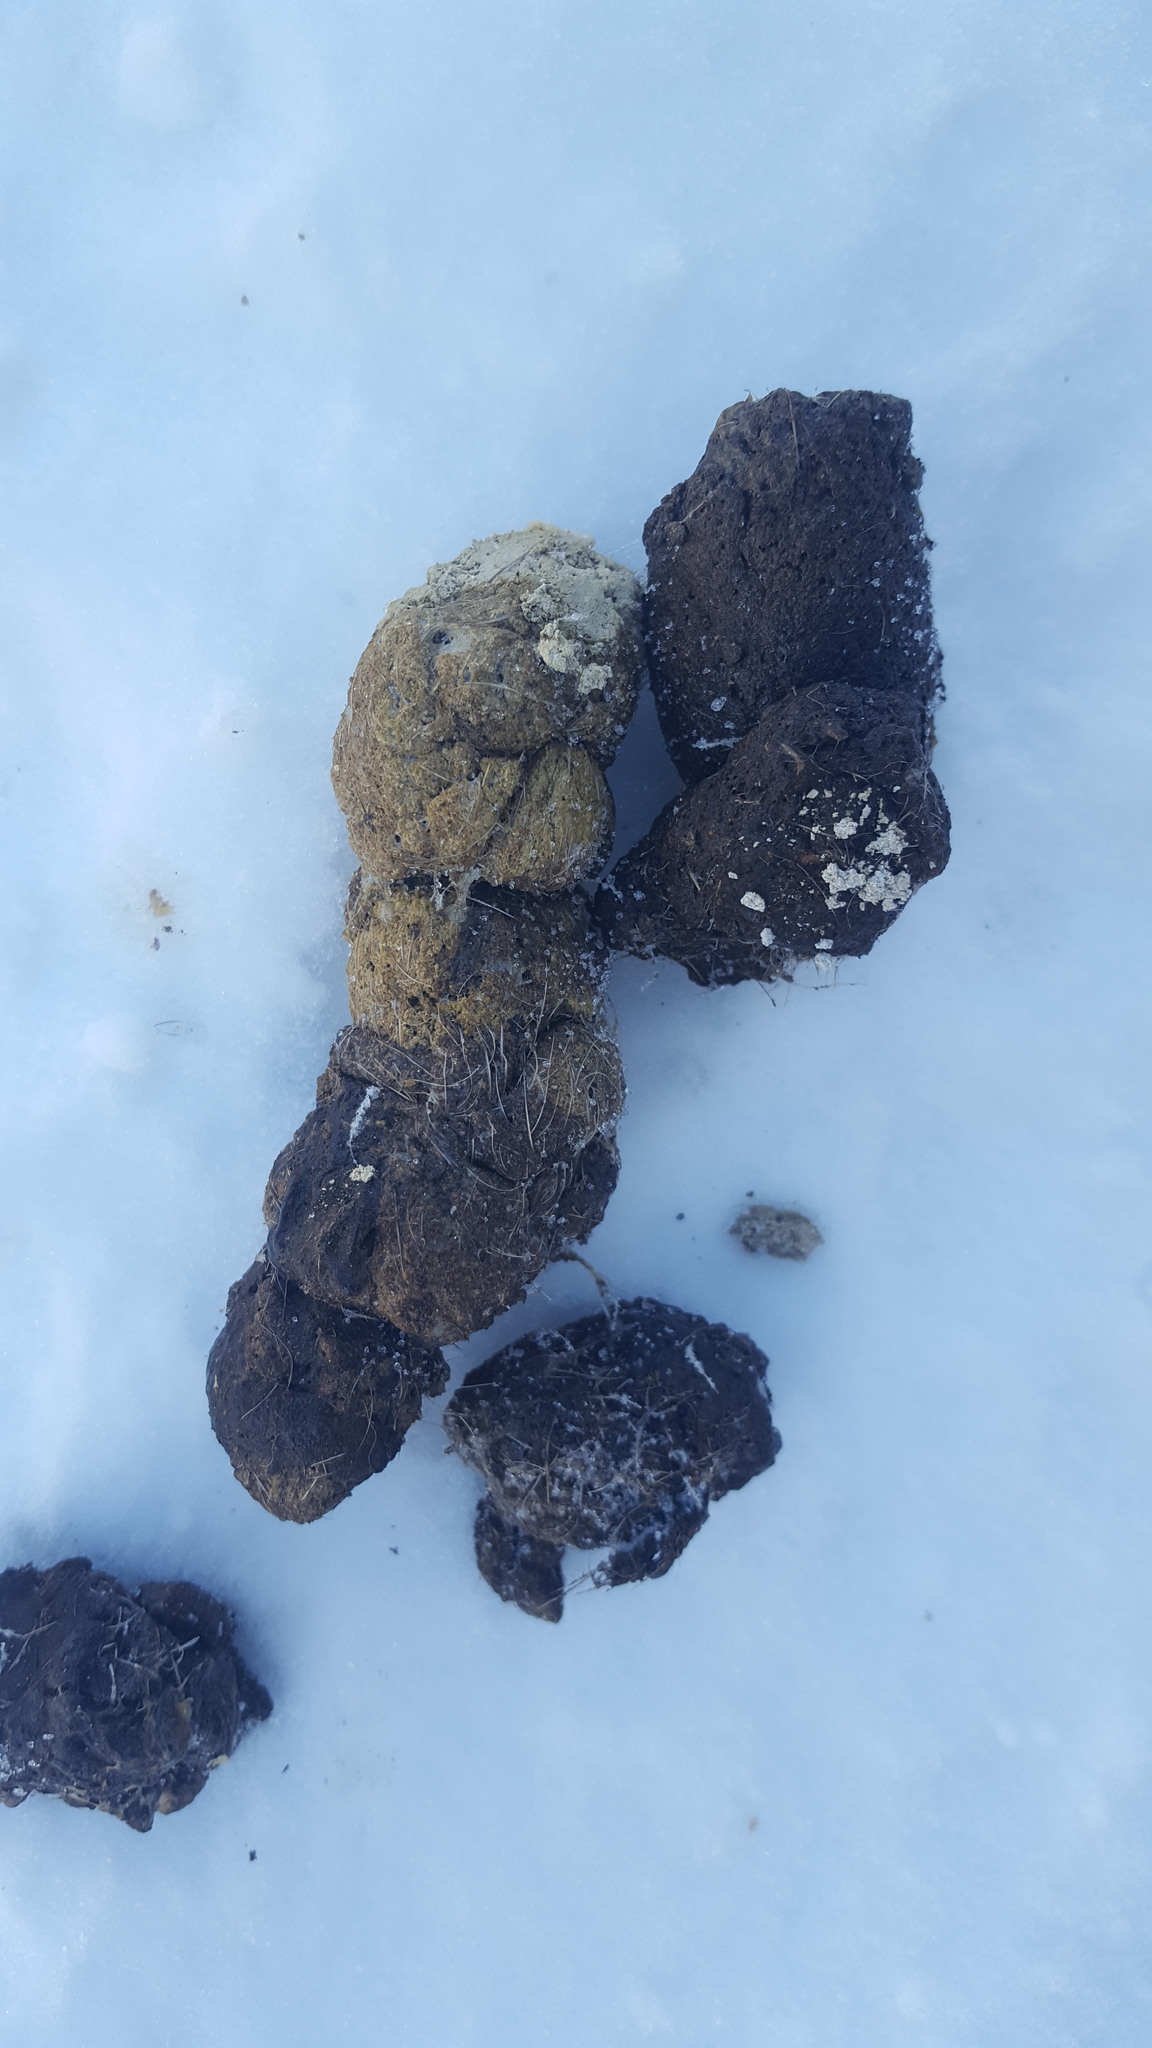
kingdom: Animalia
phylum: Chordata
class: Mammalia
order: Carnivora
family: Canidae
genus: Canis
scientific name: Canis lupus
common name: Gray wolf
